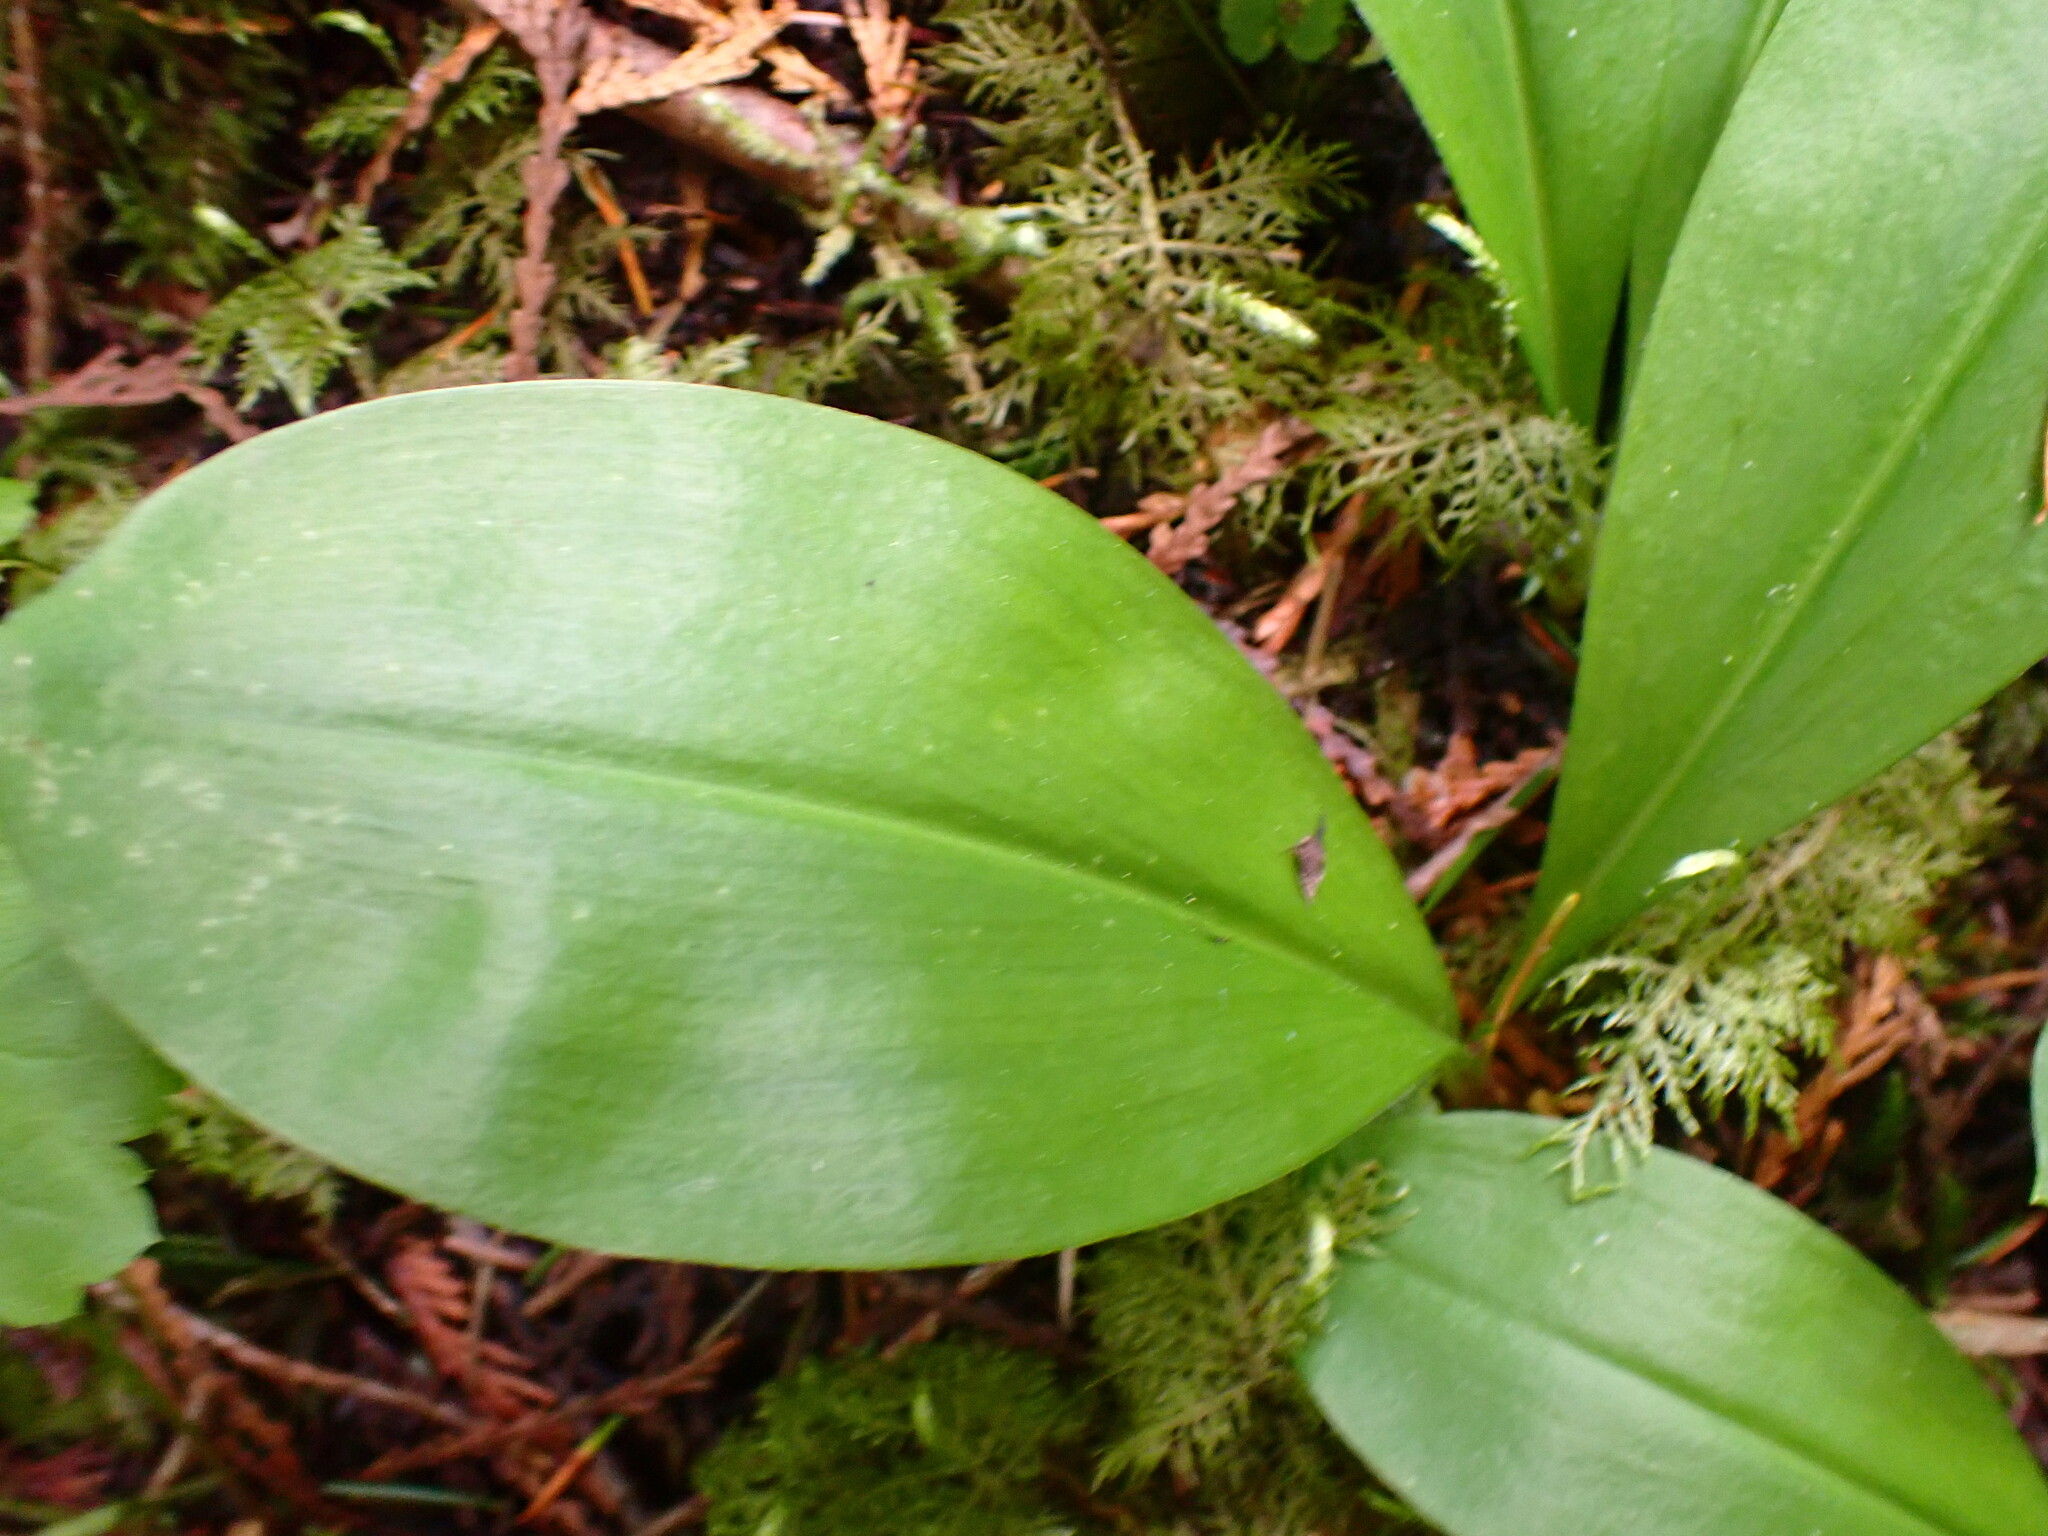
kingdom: Plantae
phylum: Tracheophyta
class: Liliopsida
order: Liliales
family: Liliaceae
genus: Clintonia
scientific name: Clintonia uniflora
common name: Queen's cup
